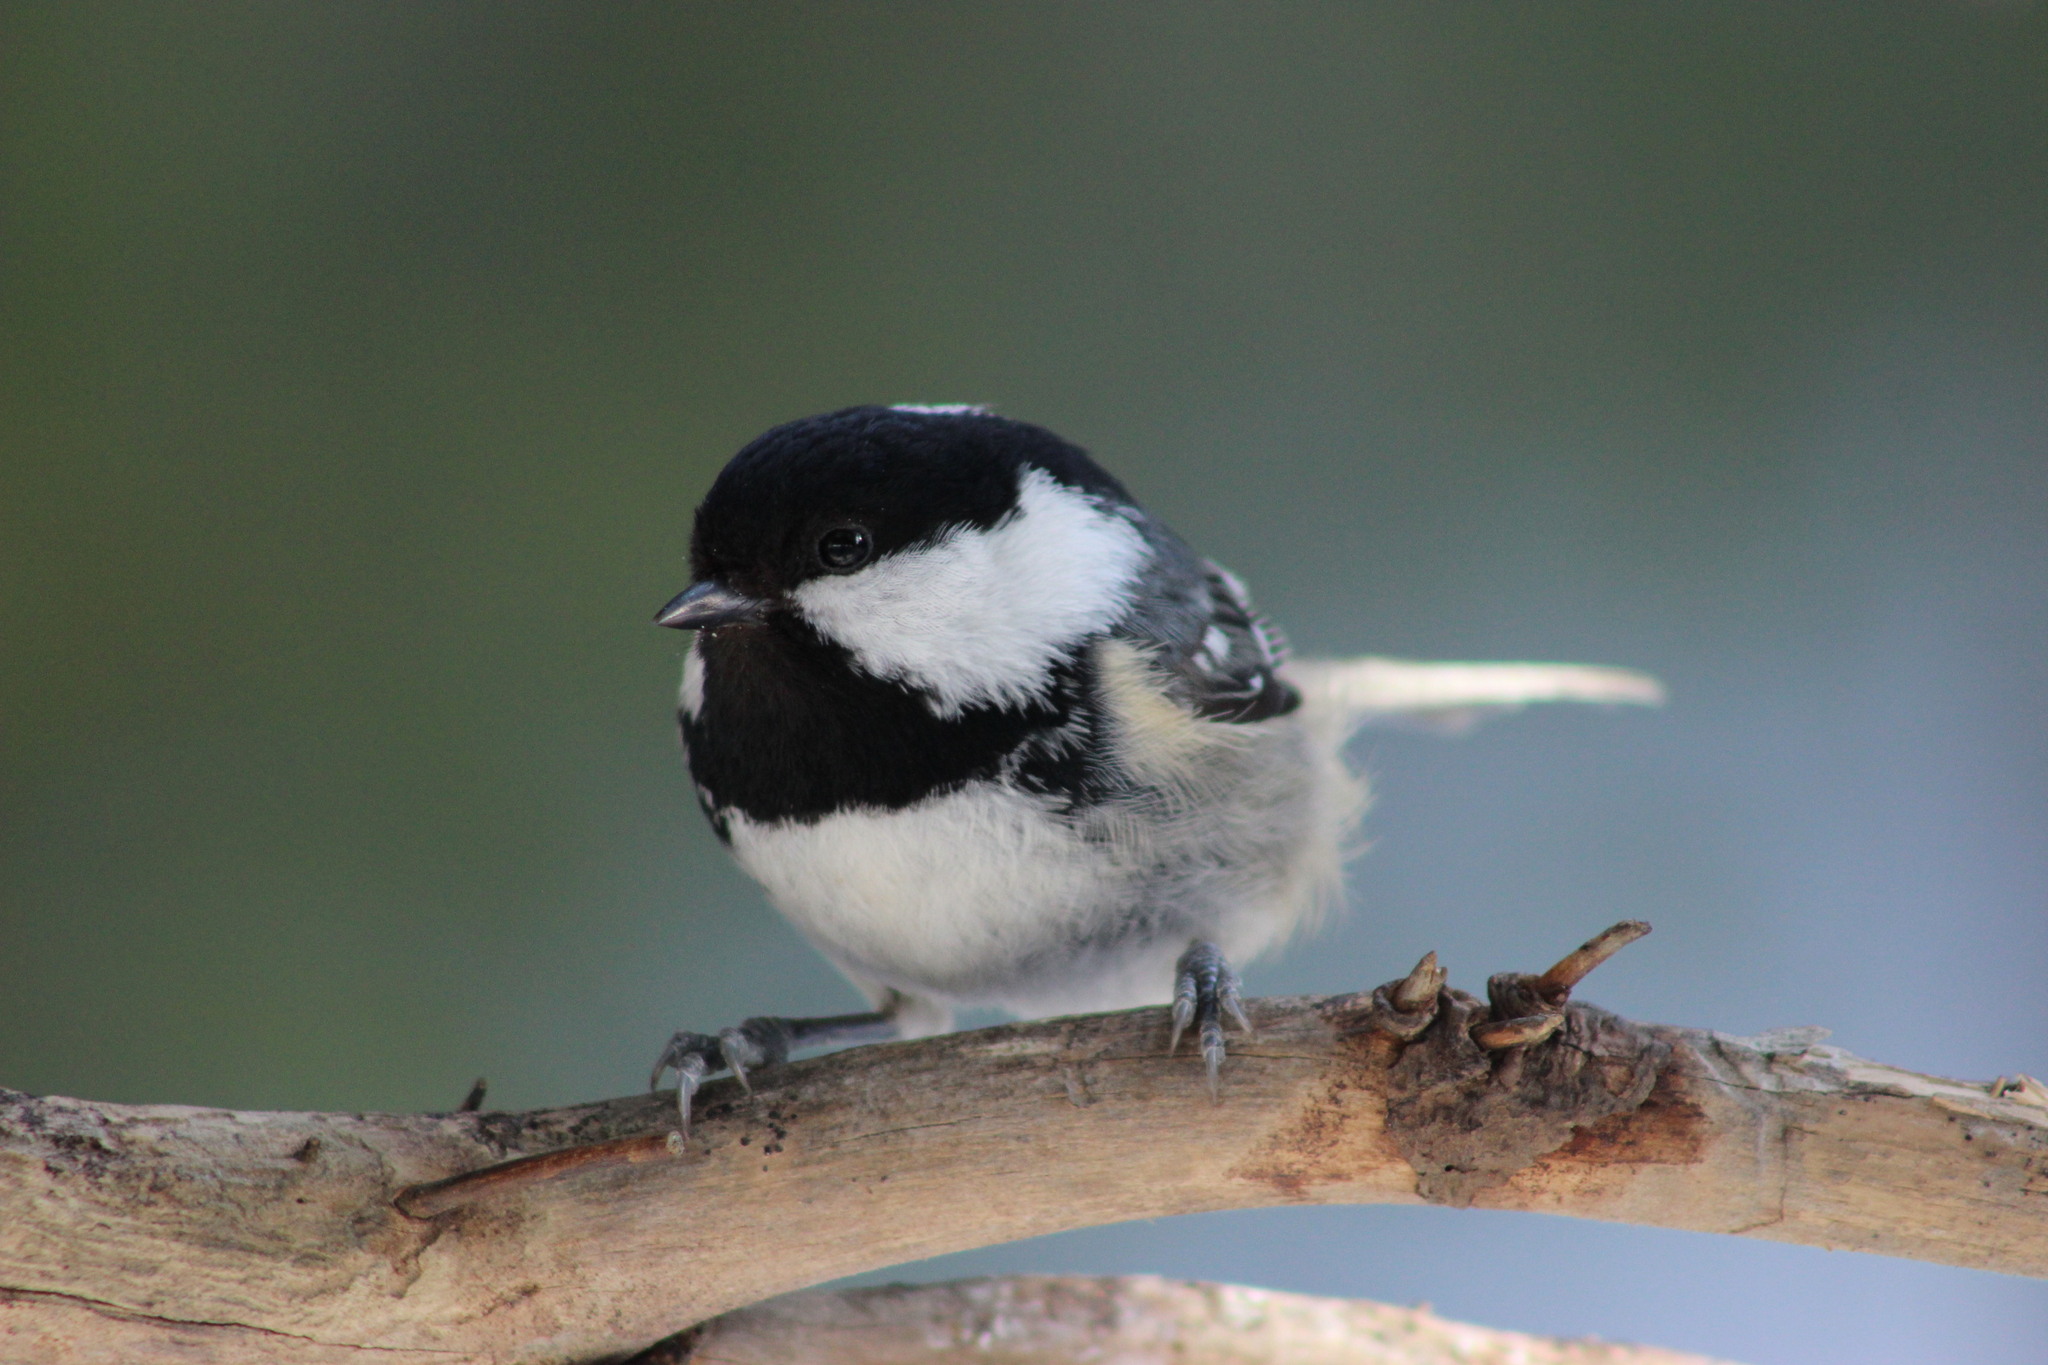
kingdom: Animalia
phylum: Chordata
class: Aves
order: Passeriformes
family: Paridae
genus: Periparus
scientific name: Periparus ater
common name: Coal tit
